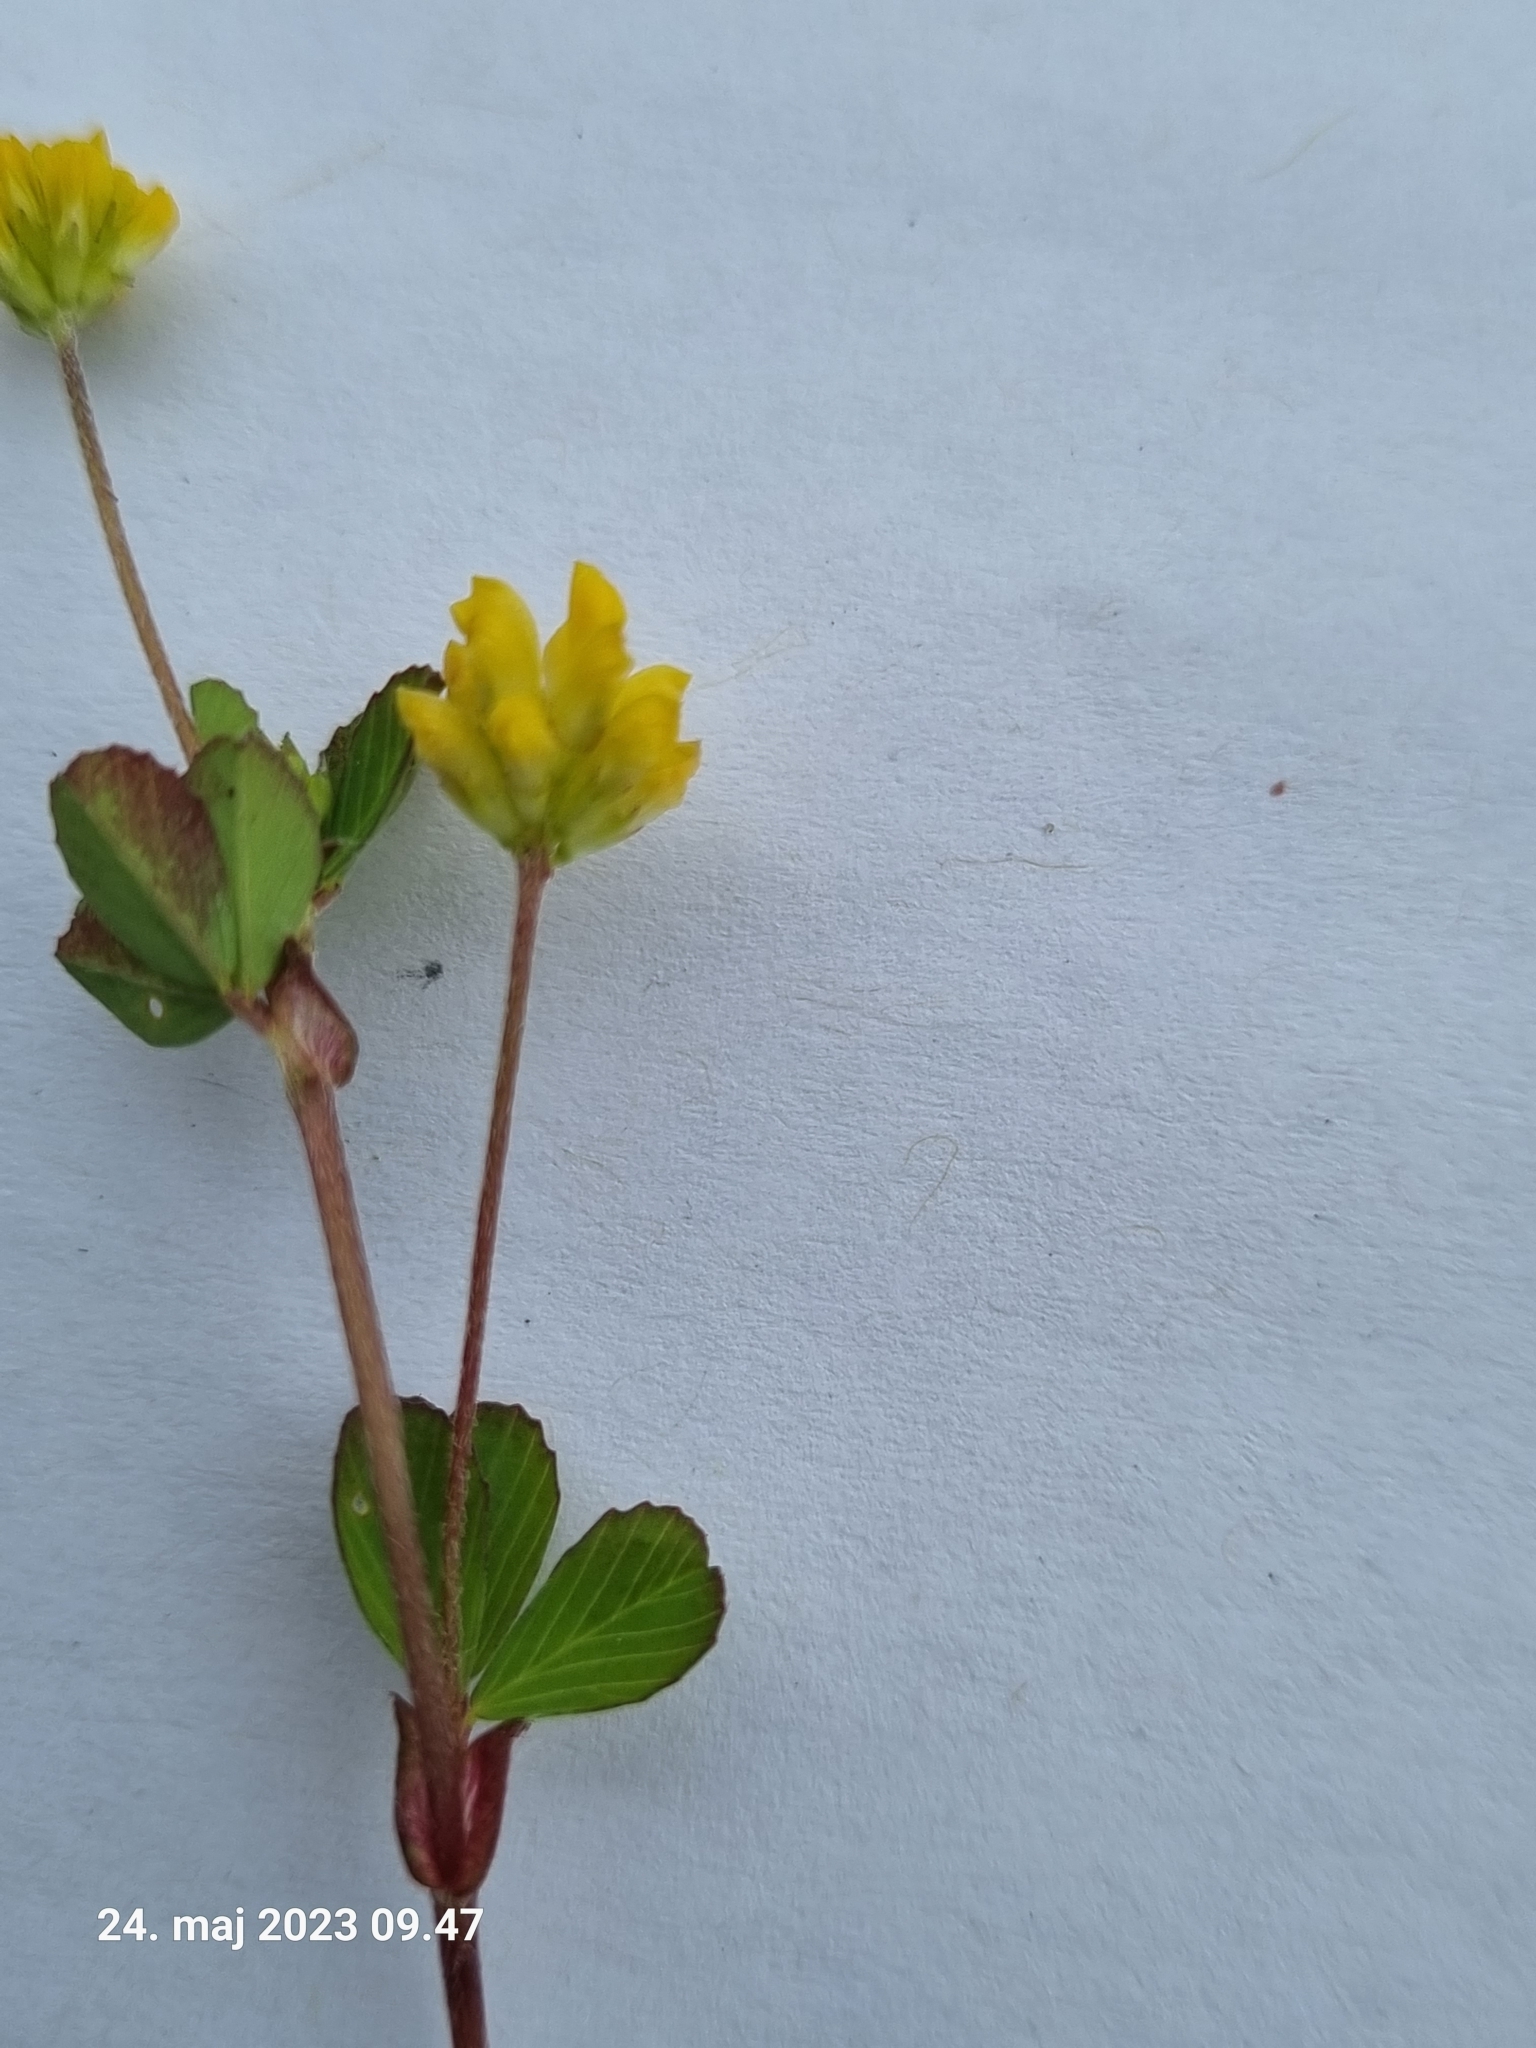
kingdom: Plantae
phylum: Tracheophyta
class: Magnoliopsida
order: Fabales
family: Fabaceae
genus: Trifolium
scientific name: Trifolium dubium
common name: Suckling clover
